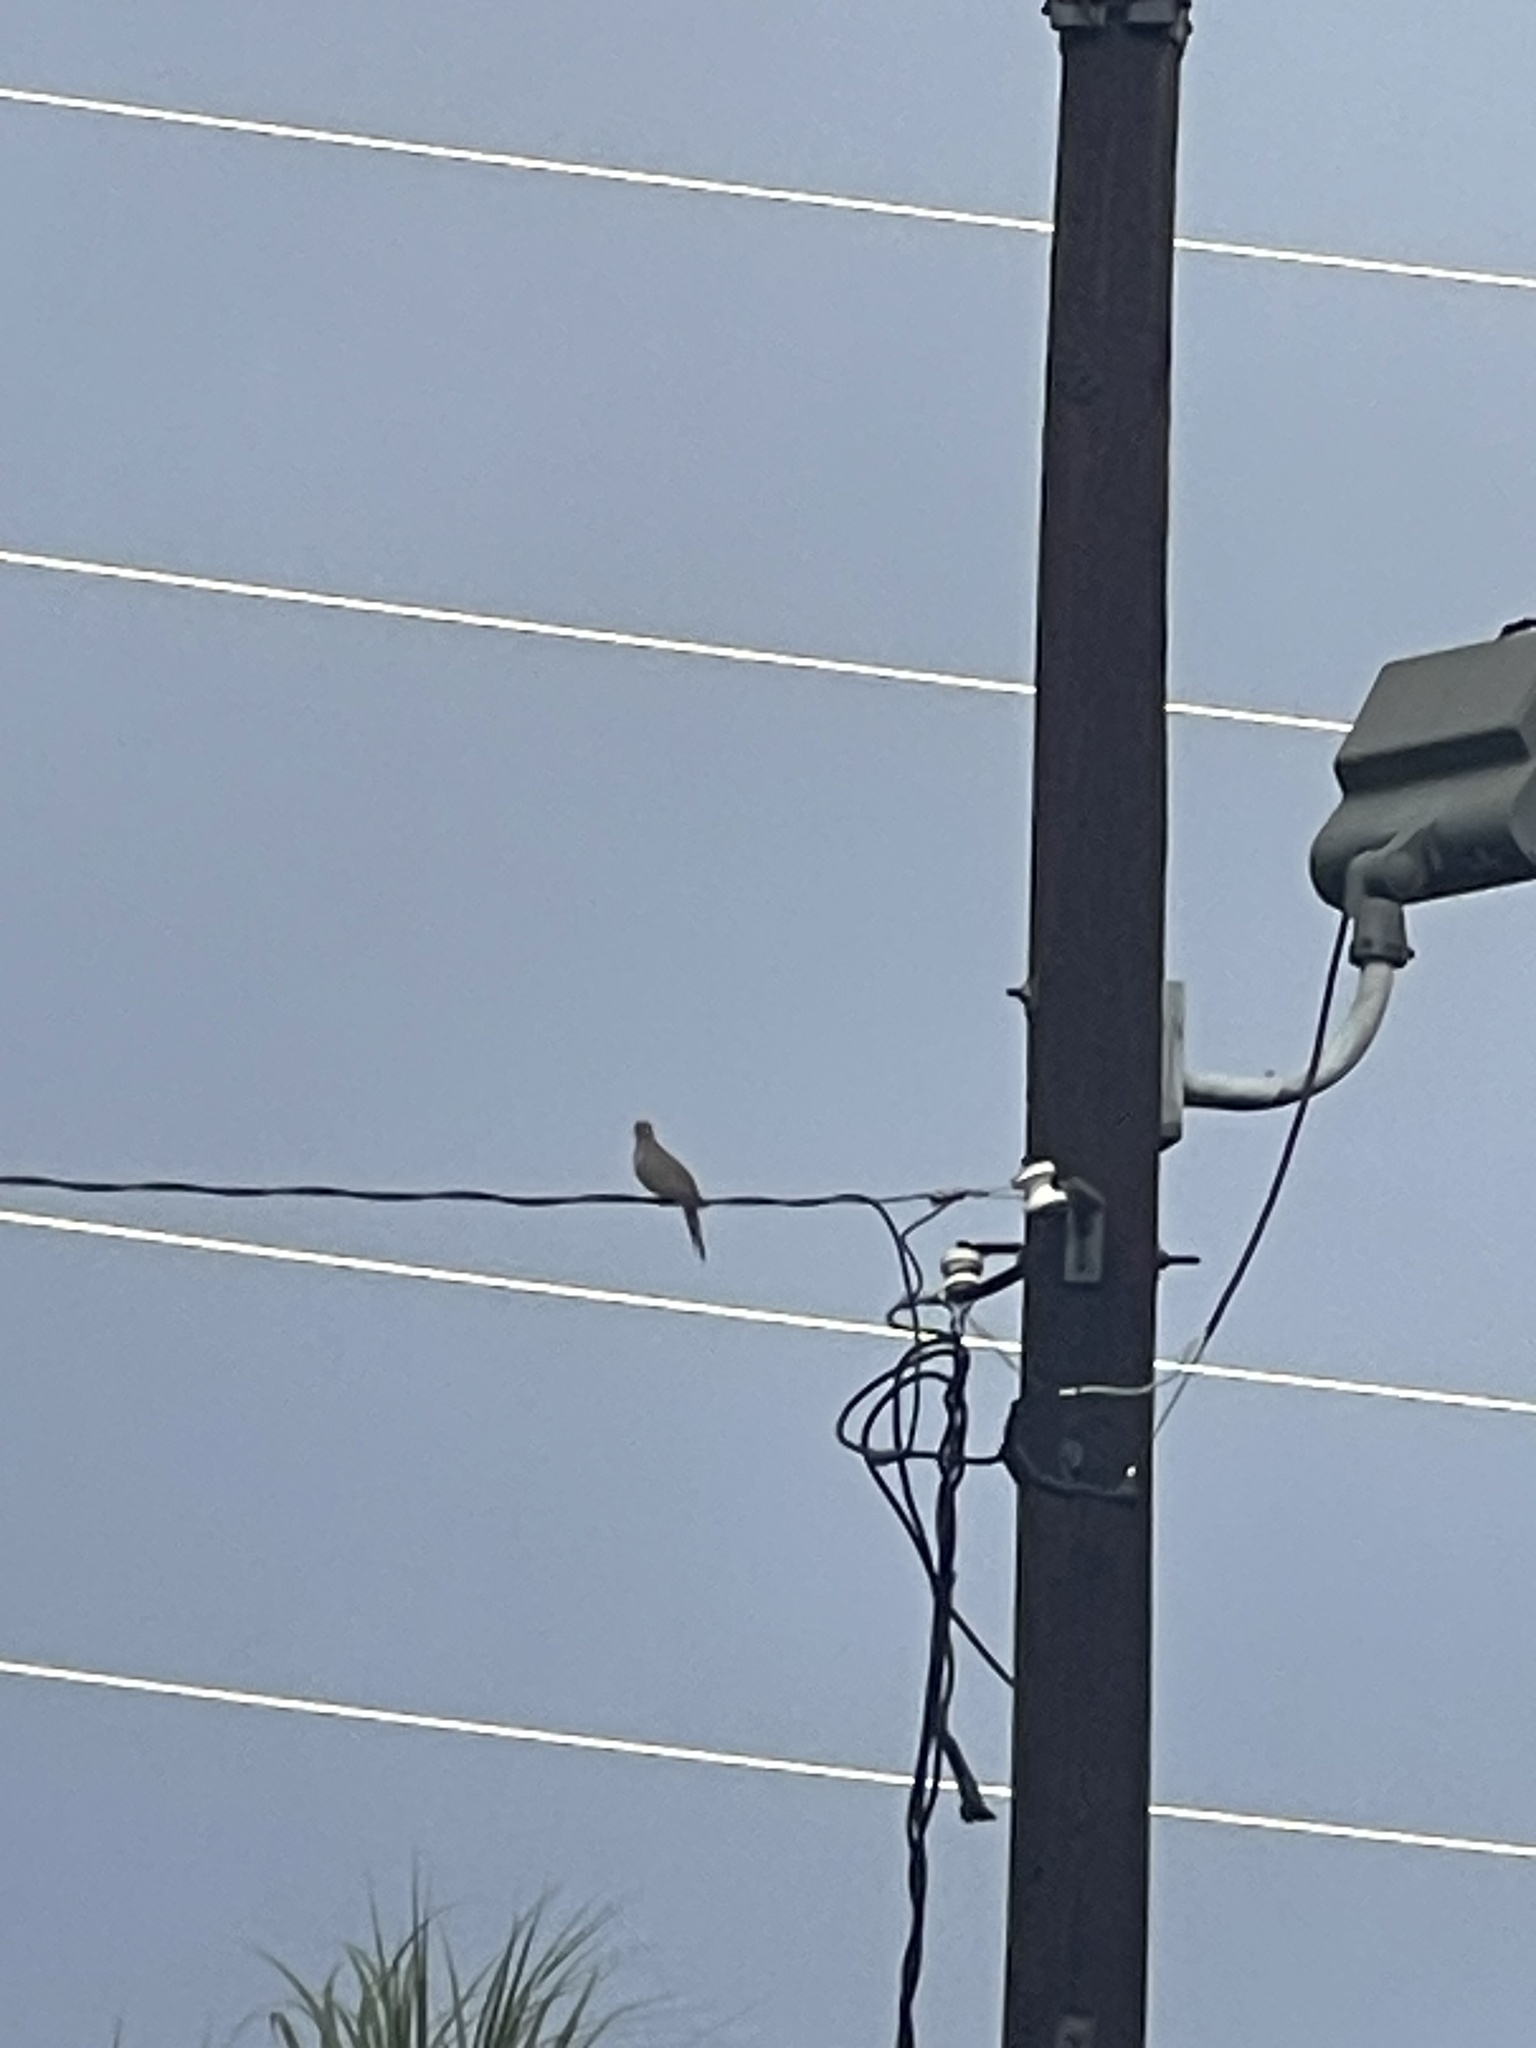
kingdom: Animalia
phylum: Chordata
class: Aves
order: Columbiformes
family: Columbidae
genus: Zenaida
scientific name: Zenaida macroura
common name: Mourning dove
